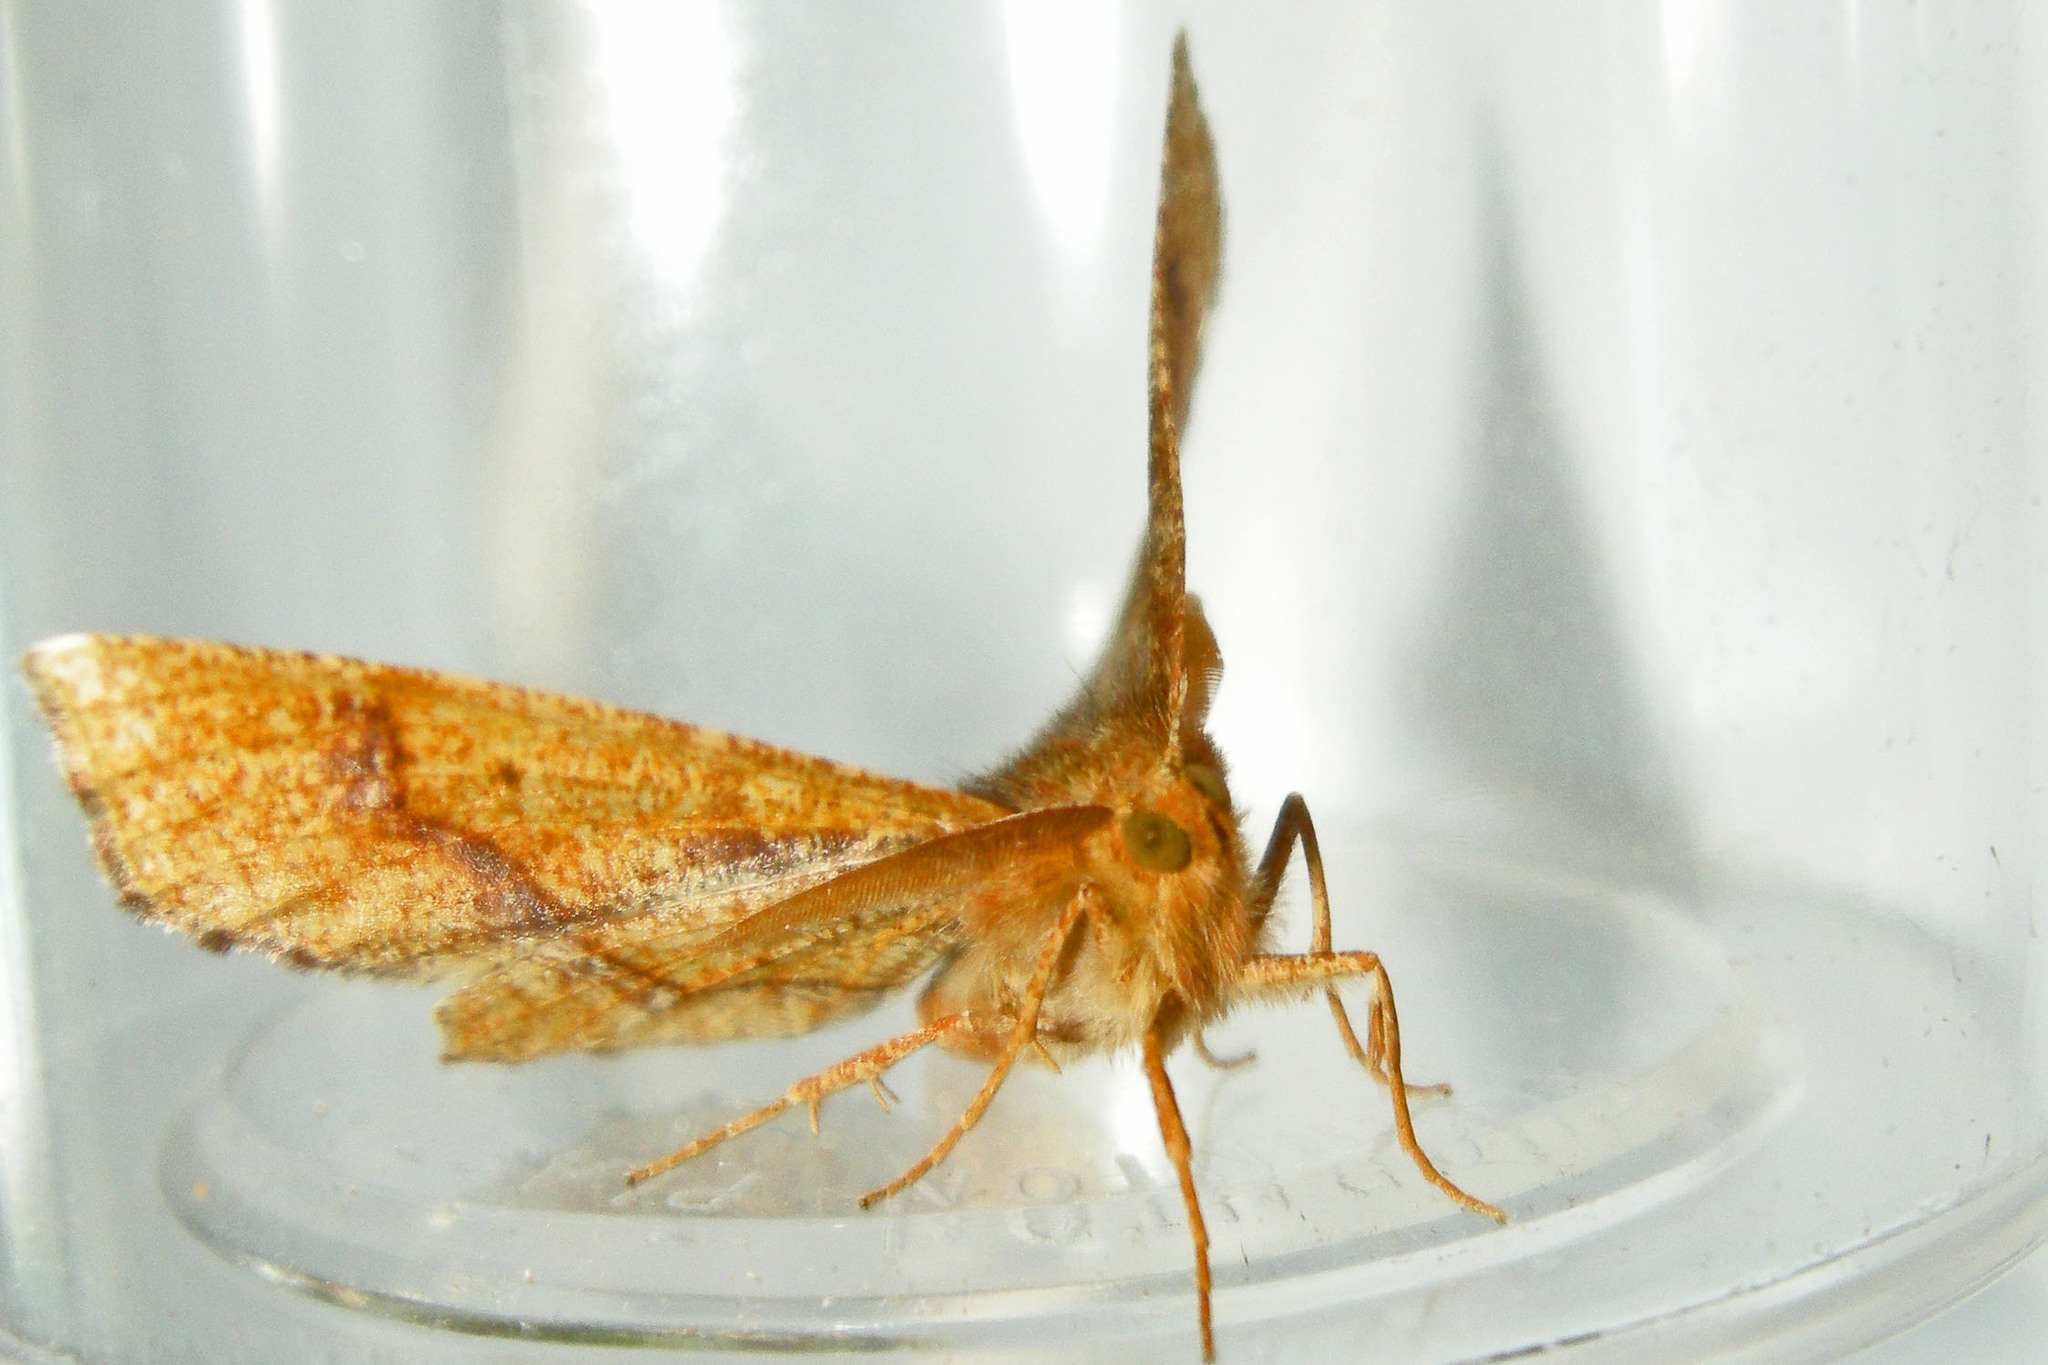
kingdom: Animalia
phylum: Arthropoda
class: Insecta
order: Lepidoptera
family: Geometridae
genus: Metarranthis
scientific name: Metarranthis hypochraria
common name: Common metarranthis
